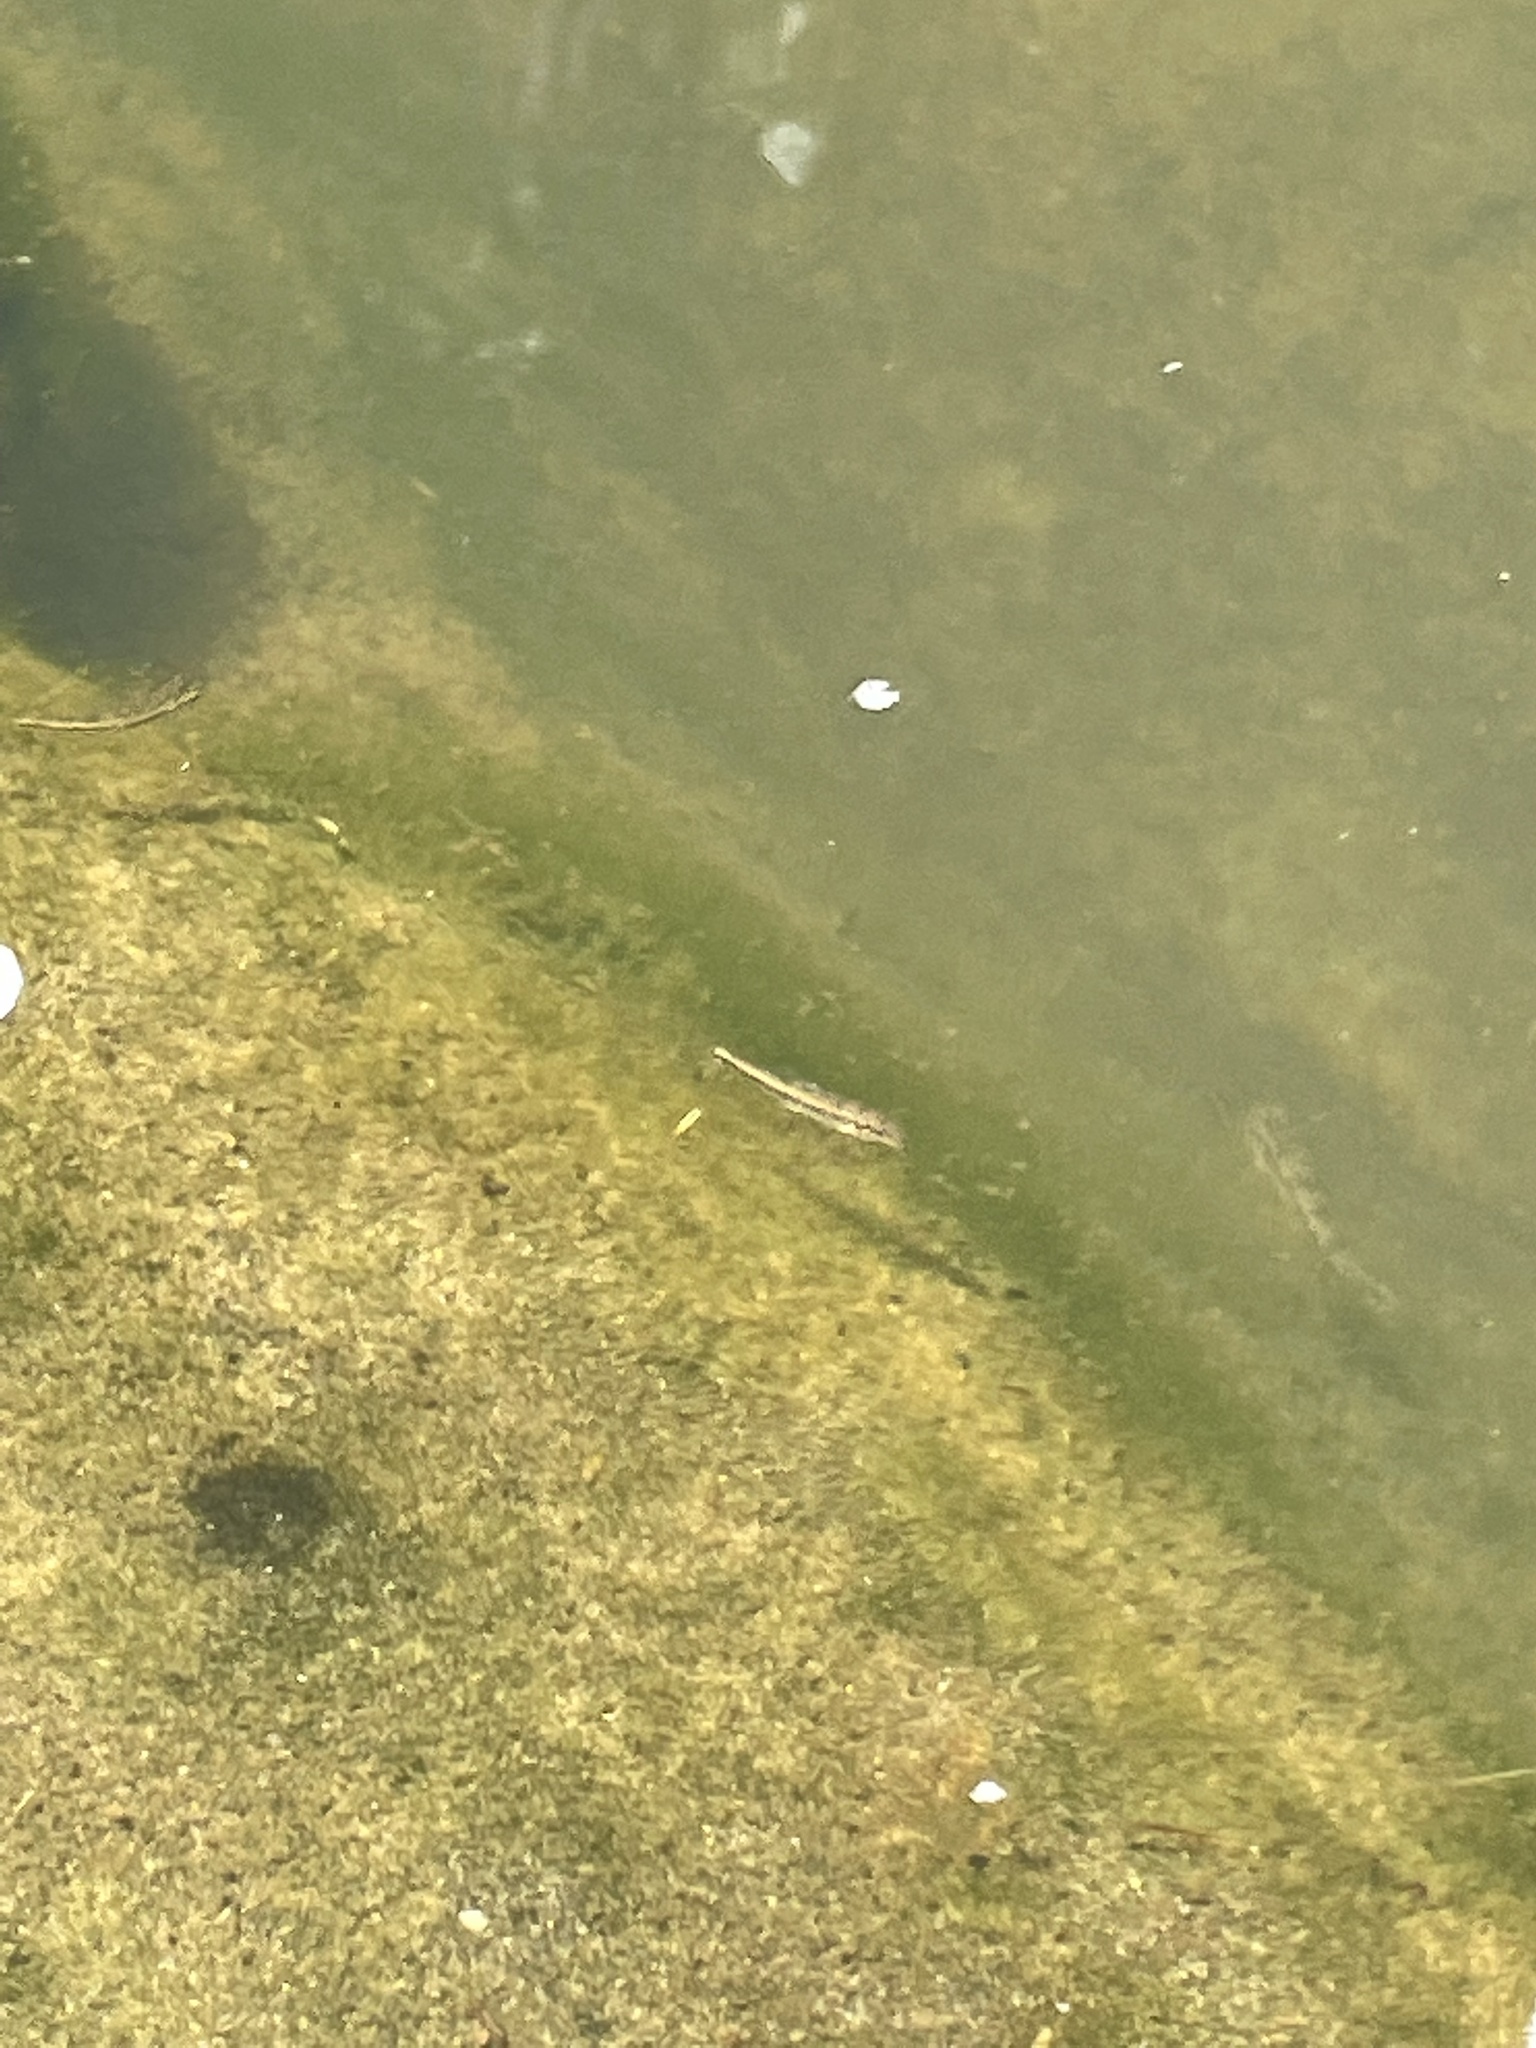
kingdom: Animalia
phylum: Chordata
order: Cypriniformes
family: Catostomidae
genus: Hypentelium
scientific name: Hypentelium etowanum
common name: Alabama hog sucker
